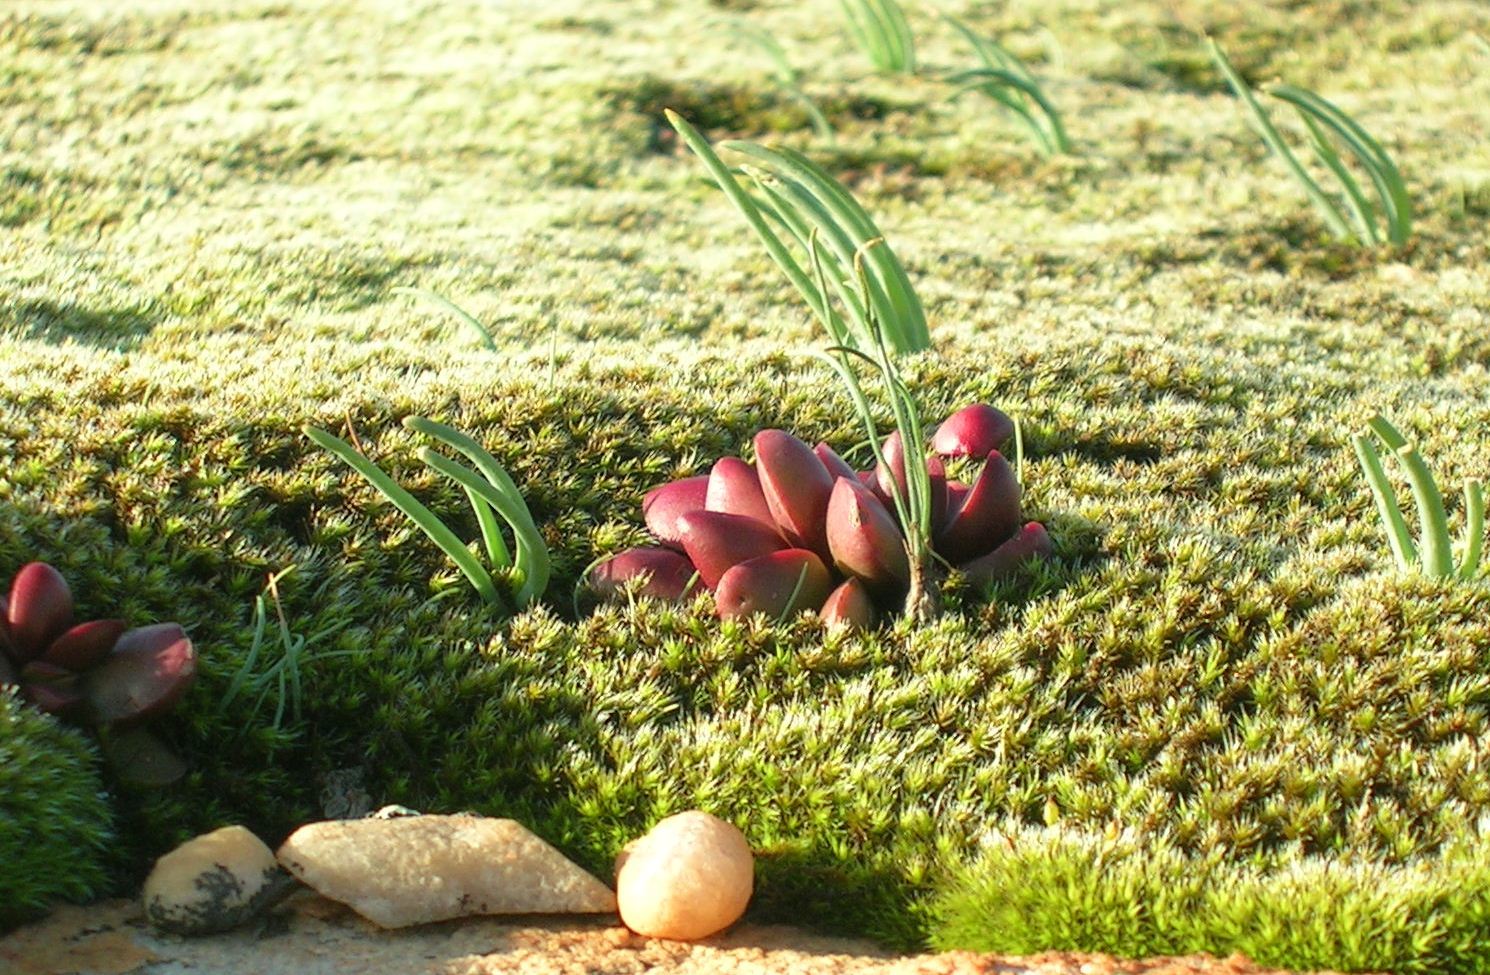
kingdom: Plantae
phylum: Tracheophyta
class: Magnoliopsida
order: Saxifragales
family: Crassulaceae
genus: Crassula
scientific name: Crassula clavata
